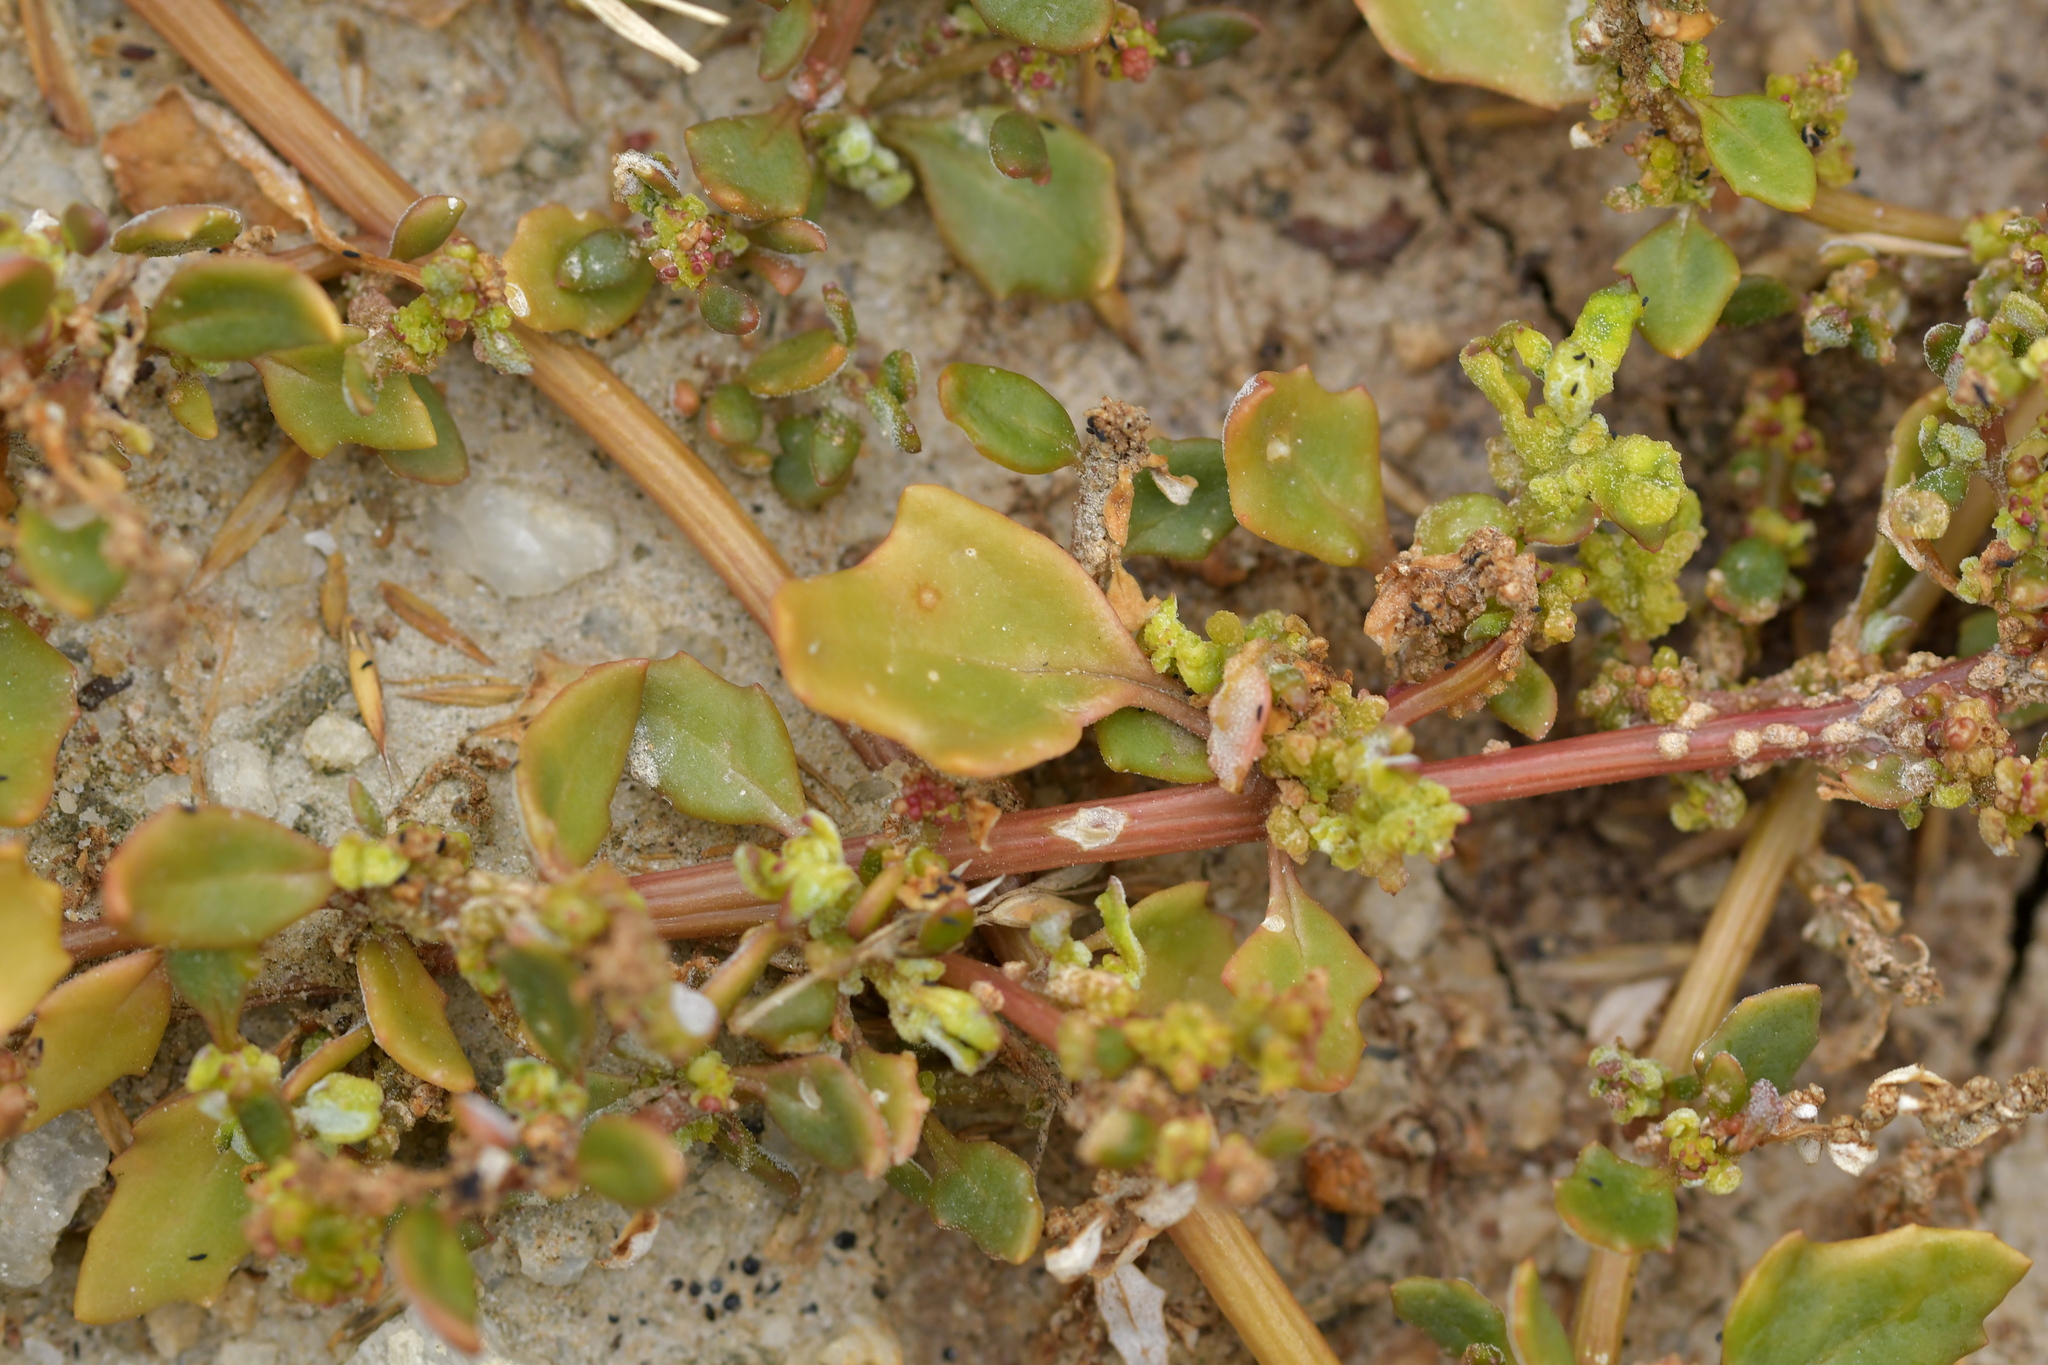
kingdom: Plantae
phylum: Tracheophyta
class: Magnoliopsida
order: Caryophyllales
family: Amaranthaceae
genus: Oxybasis
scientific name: Oxybasis ambigua
